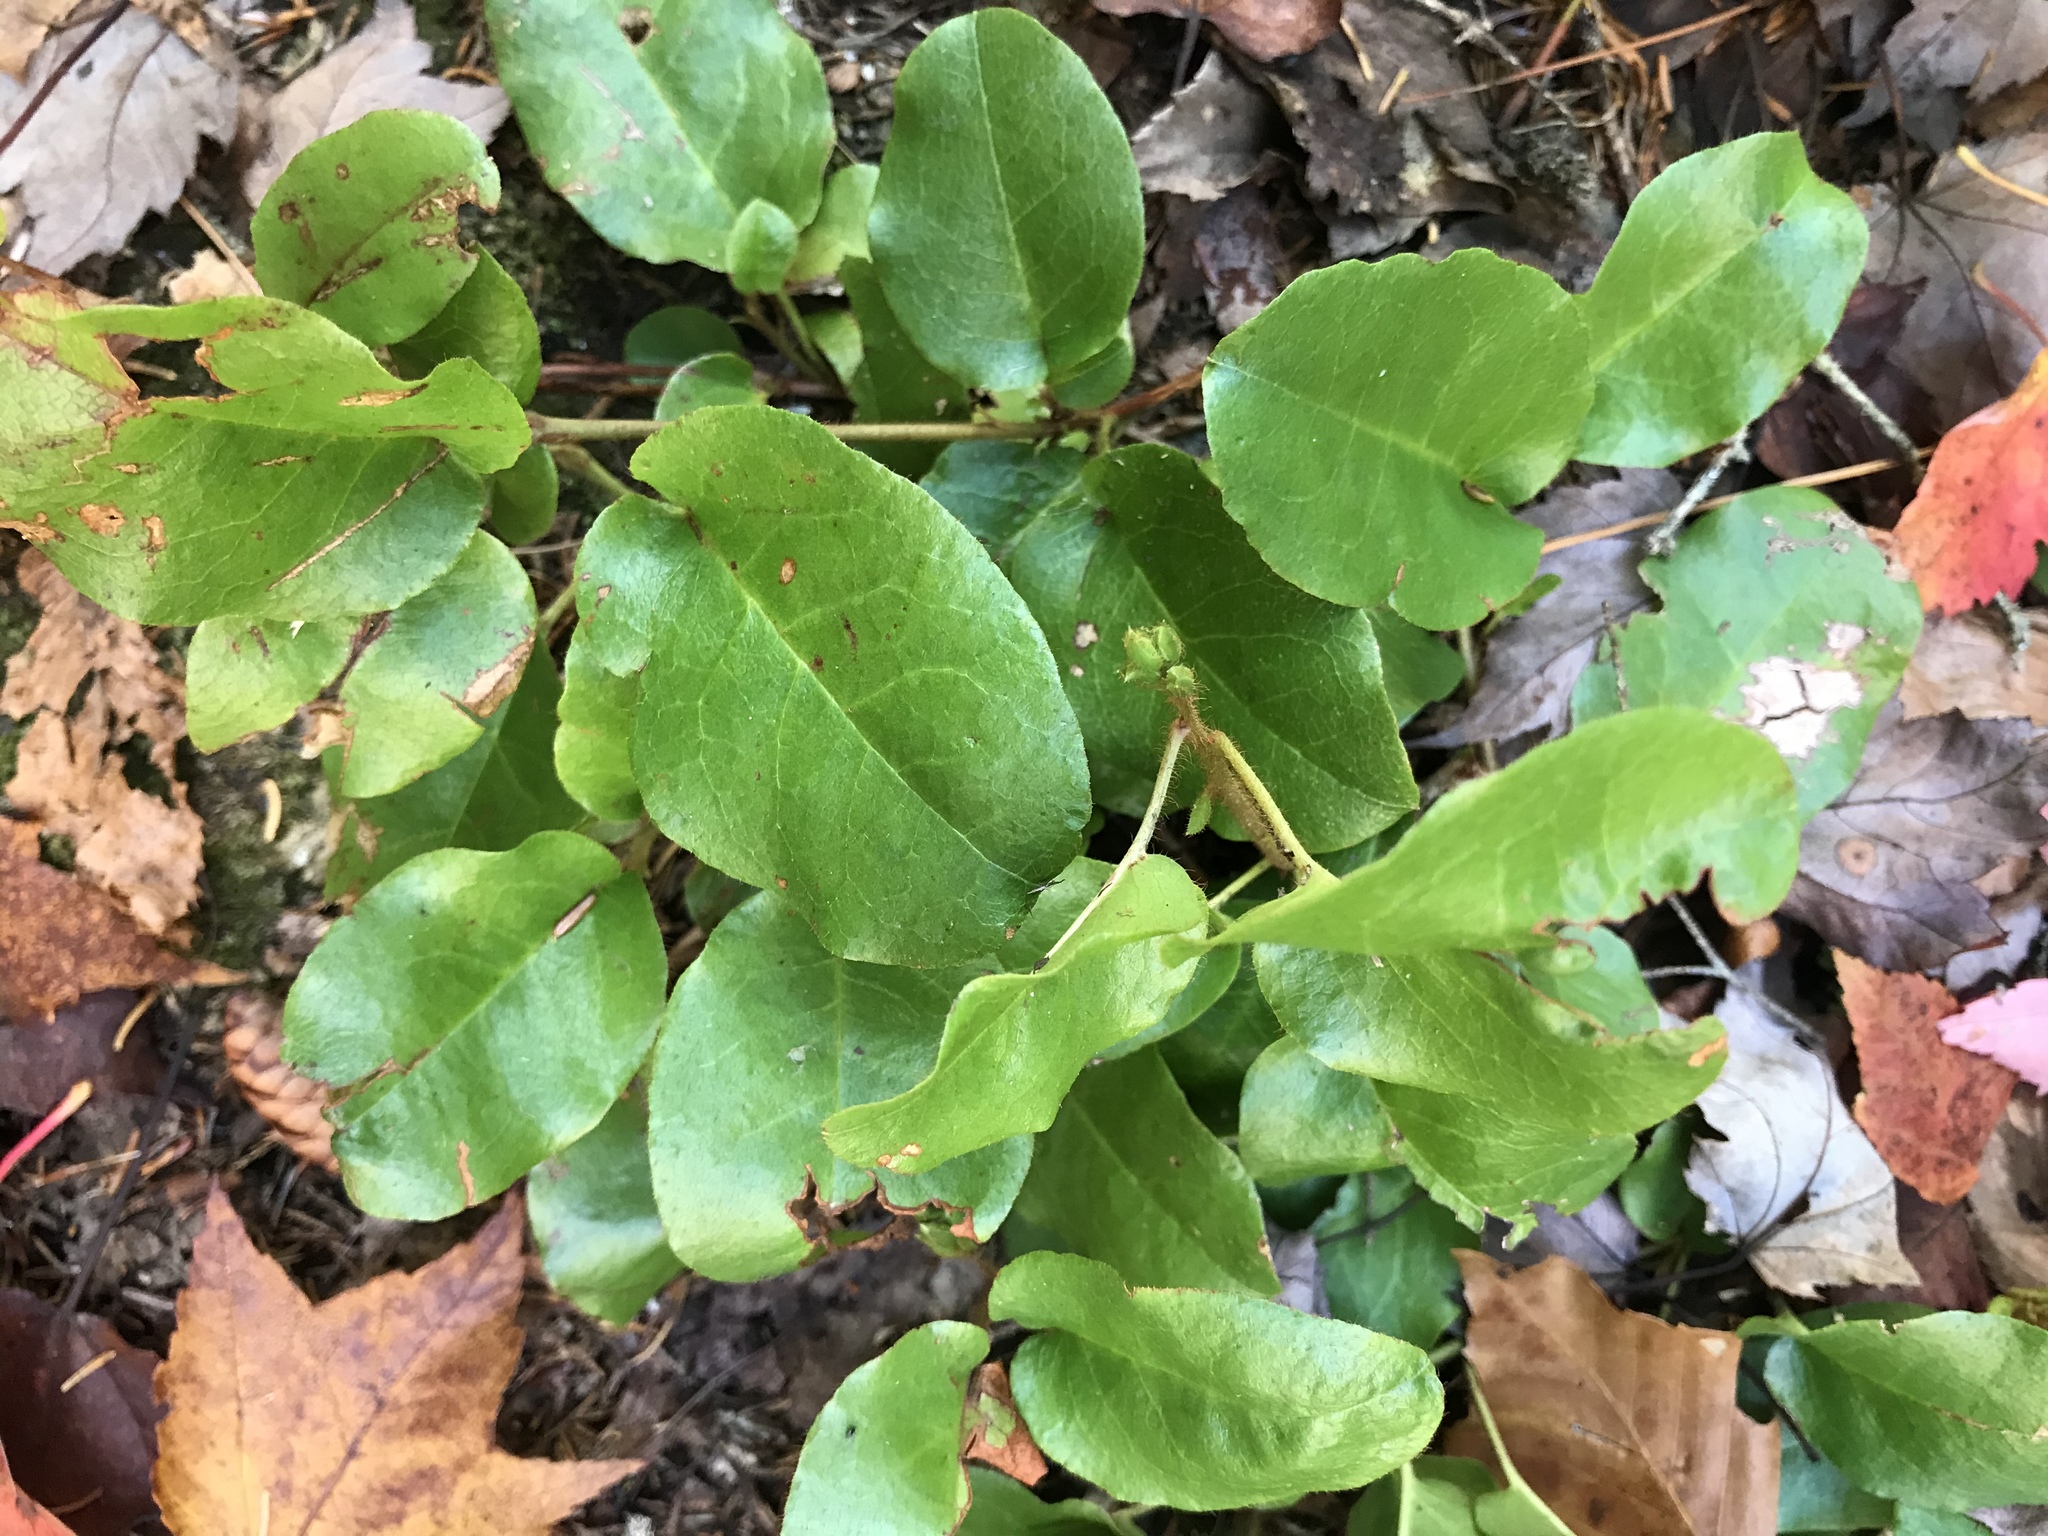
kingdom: Plantae
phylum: Tracheophyta
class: Magnoliopsida
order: Ericales
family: Ericaceae
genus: Epigaea
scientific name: Epigaea repens
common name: Gravelroot
